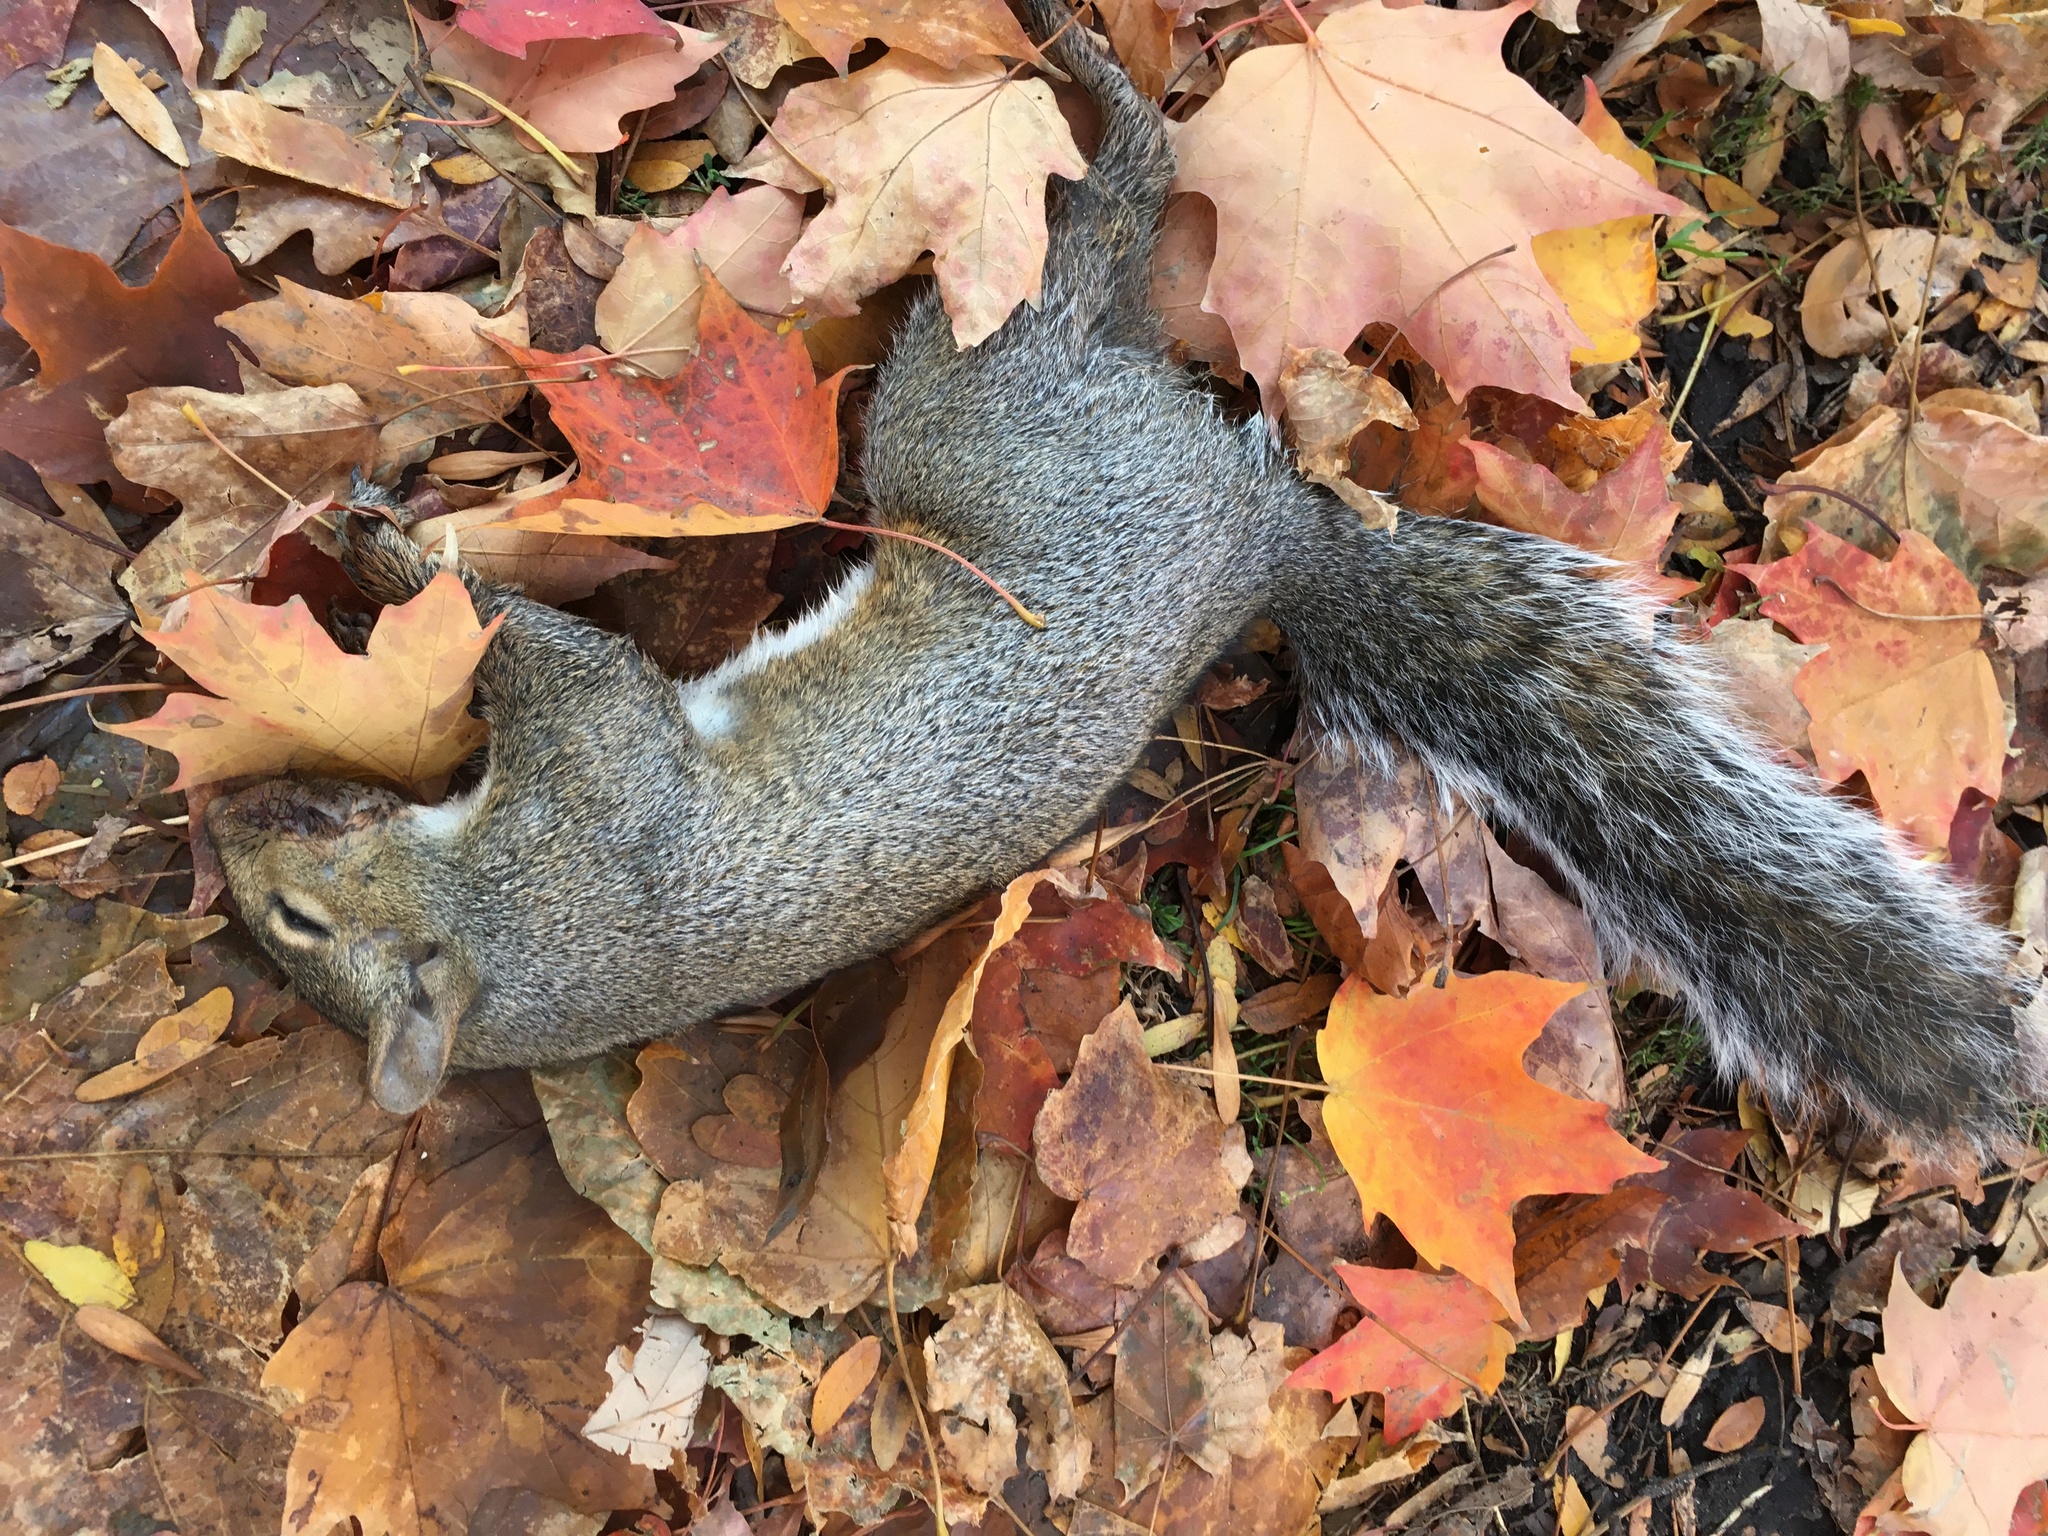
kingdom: Animalia
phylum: Chordata
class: Mammalia
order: Rodentia
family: Sciuridae
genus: Sciurus
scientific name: Sciurus carolinensis
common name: Eastern gray squirrel
